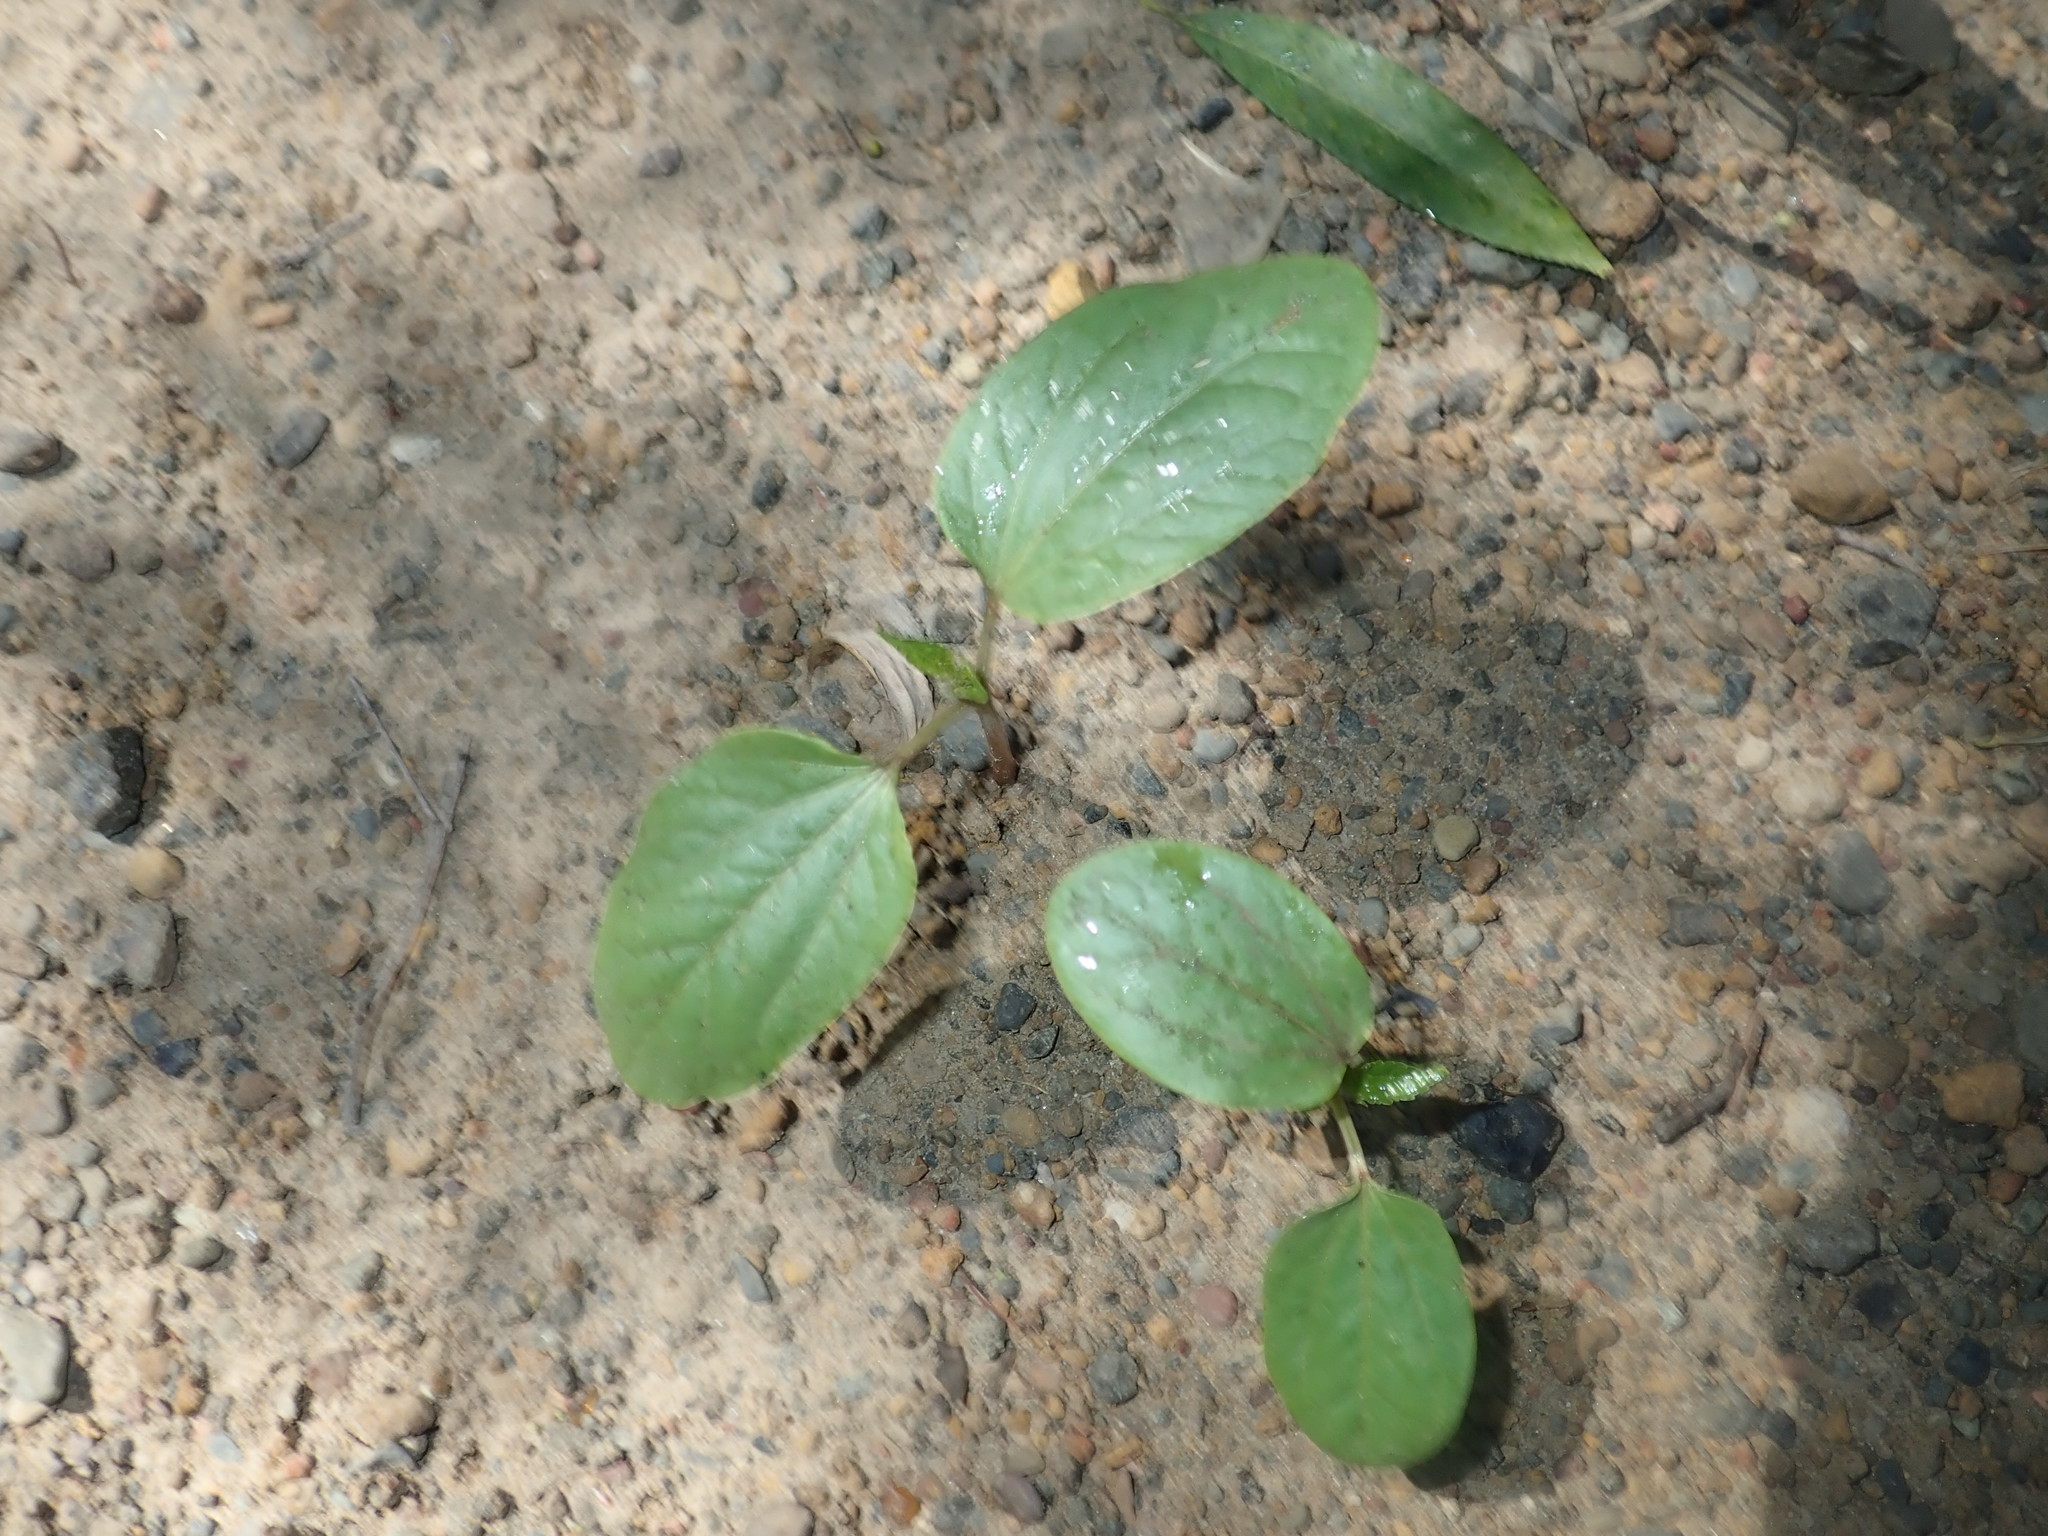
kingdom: Plantae
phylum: Tracheophyta
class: Magnoliopsida
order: Malpighiales
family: Euphorbiaceae
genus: Ricinus
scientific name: Ricinus communis
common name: Castor-oil-plant
